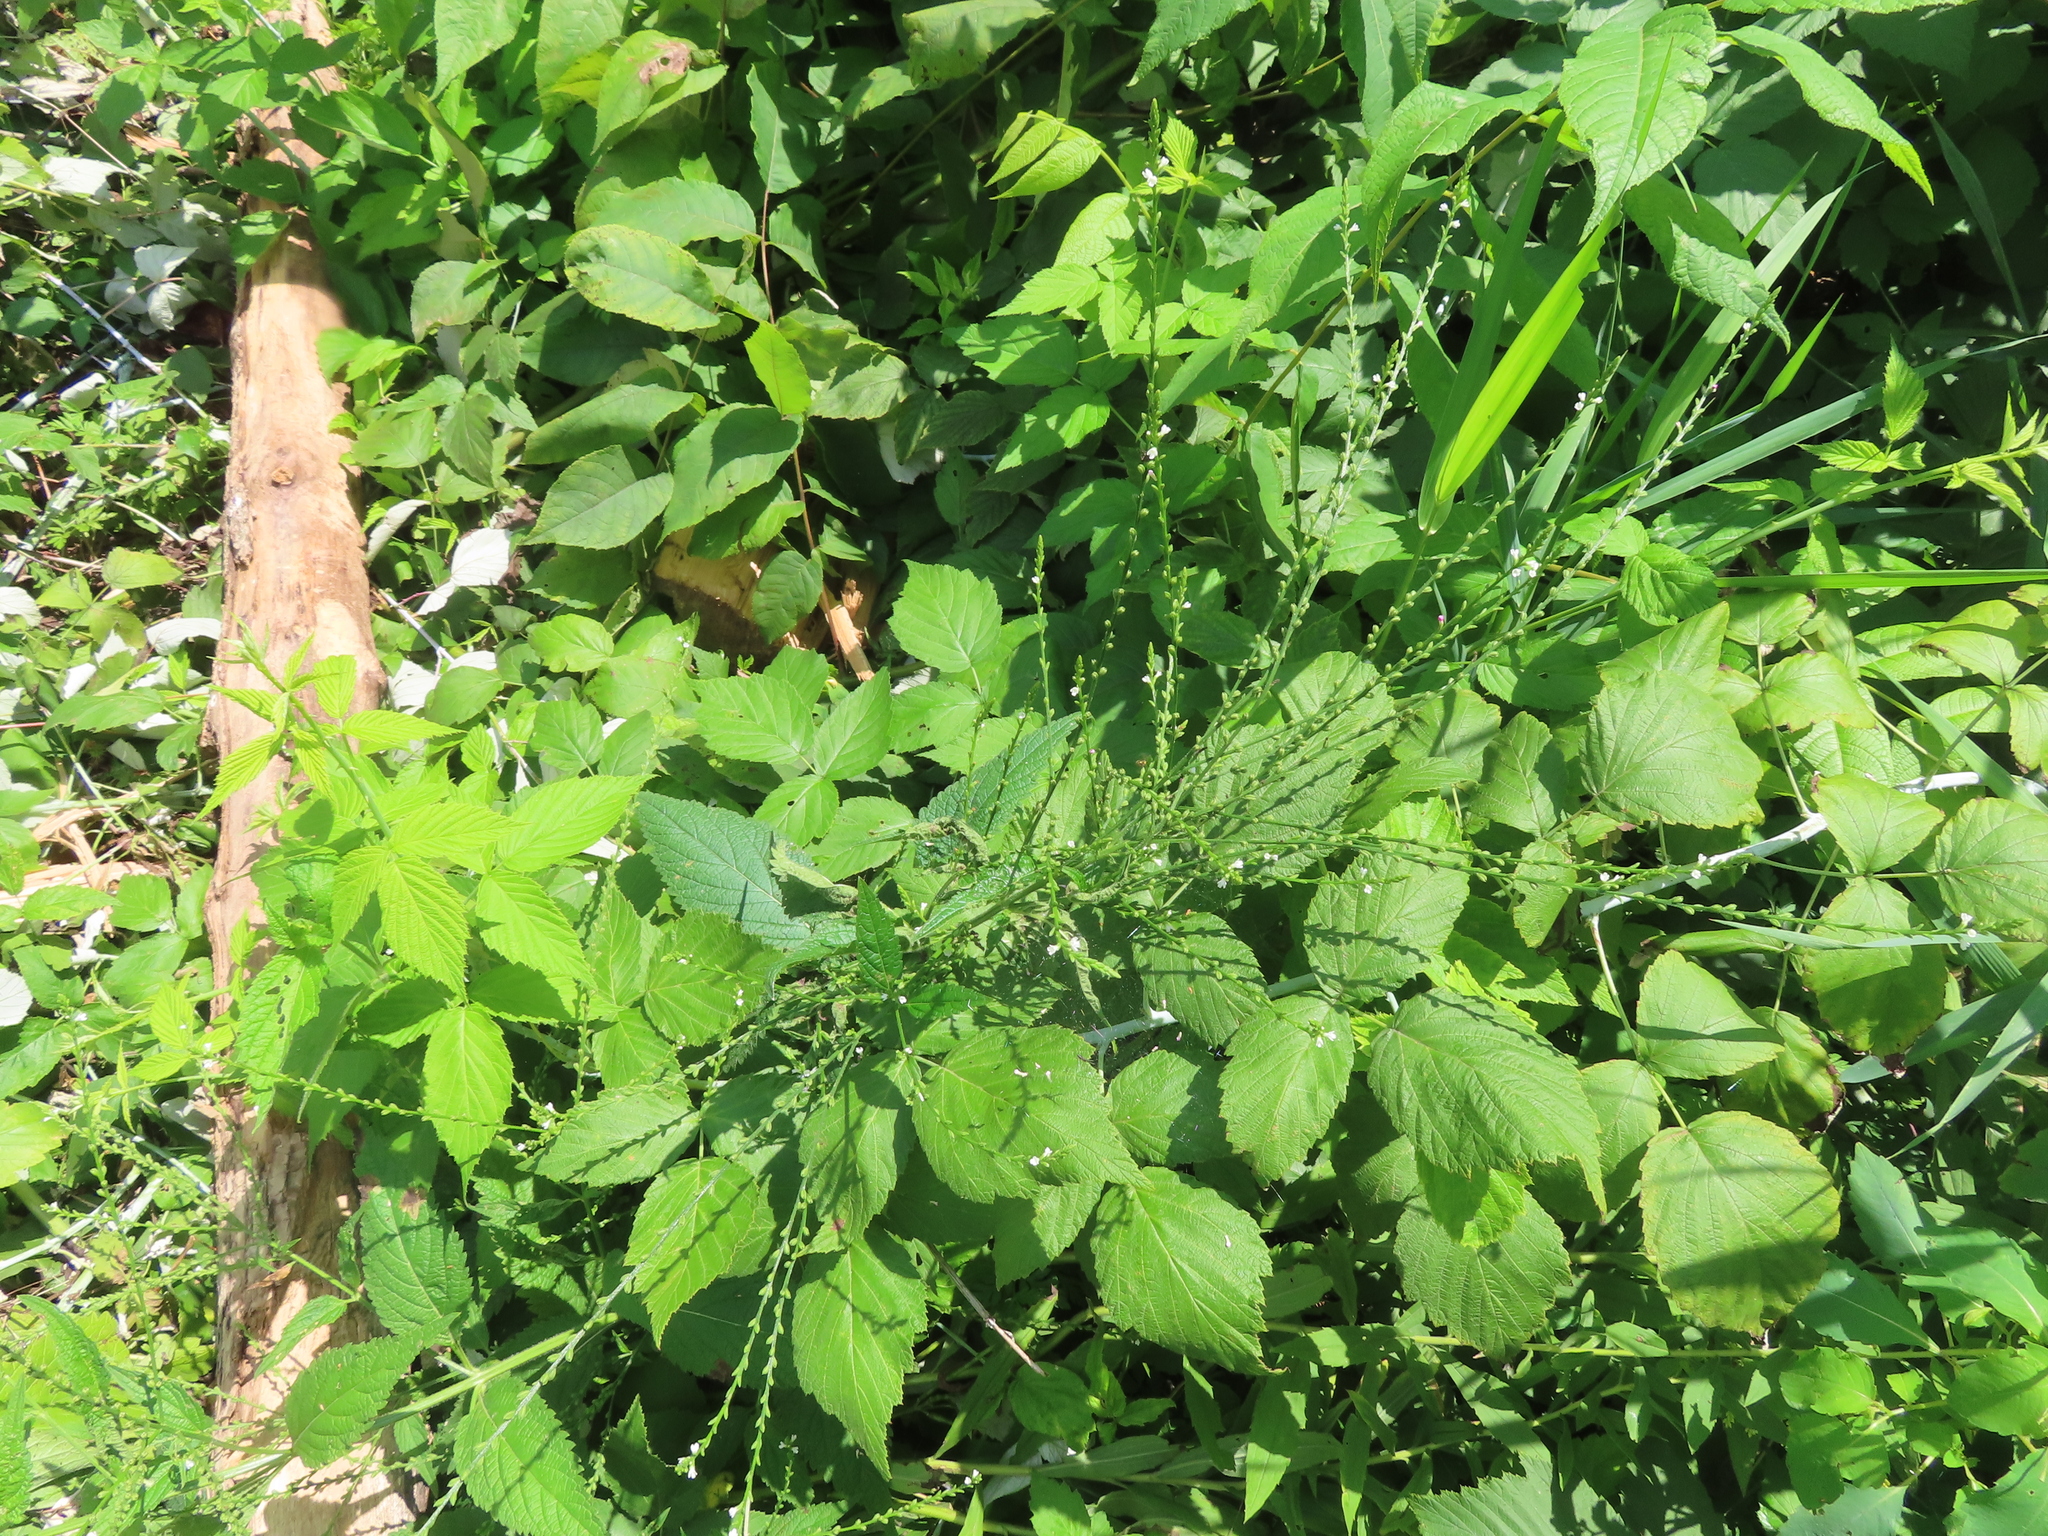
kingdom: Plantae
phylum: Tracheophyta
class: Magnoliopsida
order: Lamiales
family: Verbenaceae
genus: Verbena
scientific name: Verbena urticifolia
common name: Nettle-leaved vervain
